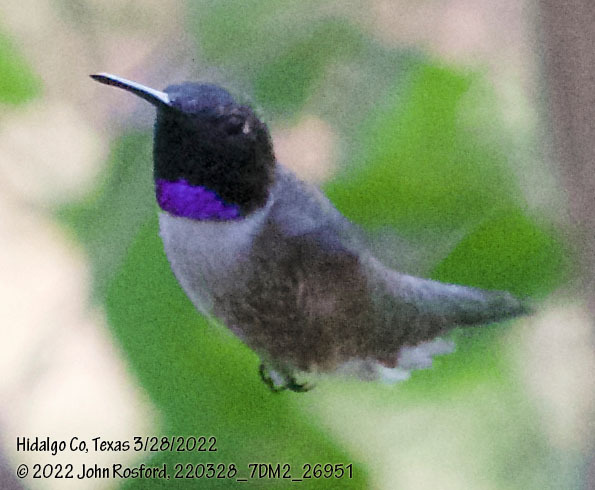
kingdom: Animalia
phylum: Chordata
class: Aves
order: Apodiformes
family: Trochilidae
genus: Archilochus
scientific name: Archilochus alexandri
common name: Black-chinned hummingbird
